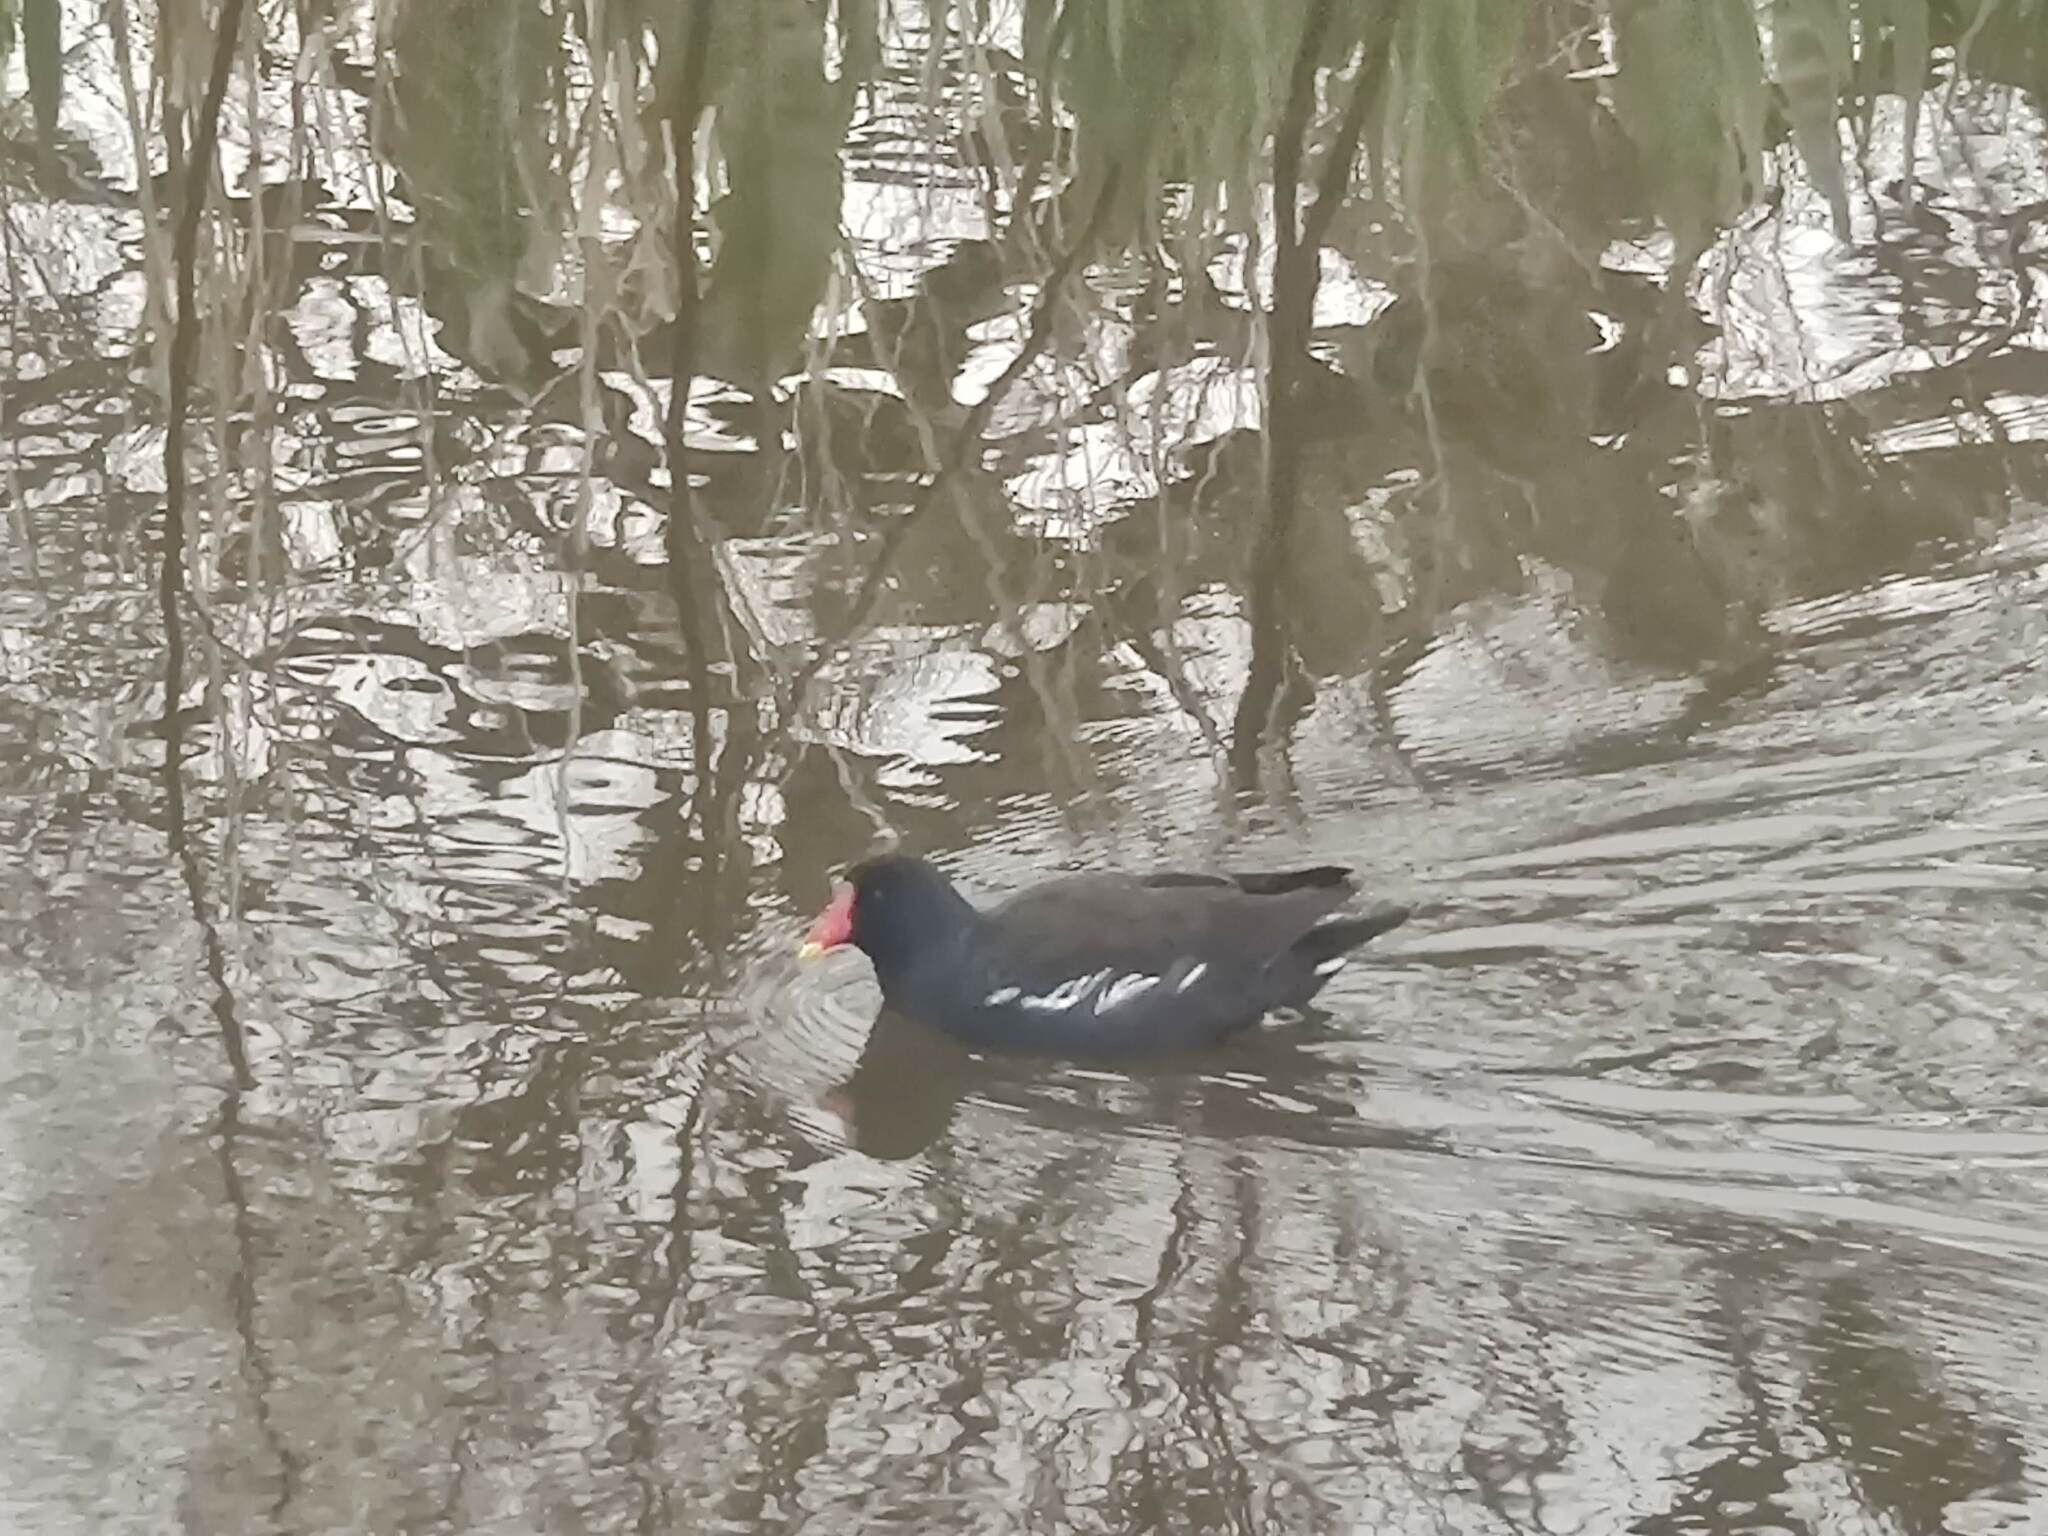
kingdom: Animalia
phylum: Chordata
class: Aves
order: Gruiformes
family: Rallidae
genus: Gallinula
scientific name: Gallinula chloropus
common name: Common moorhen
